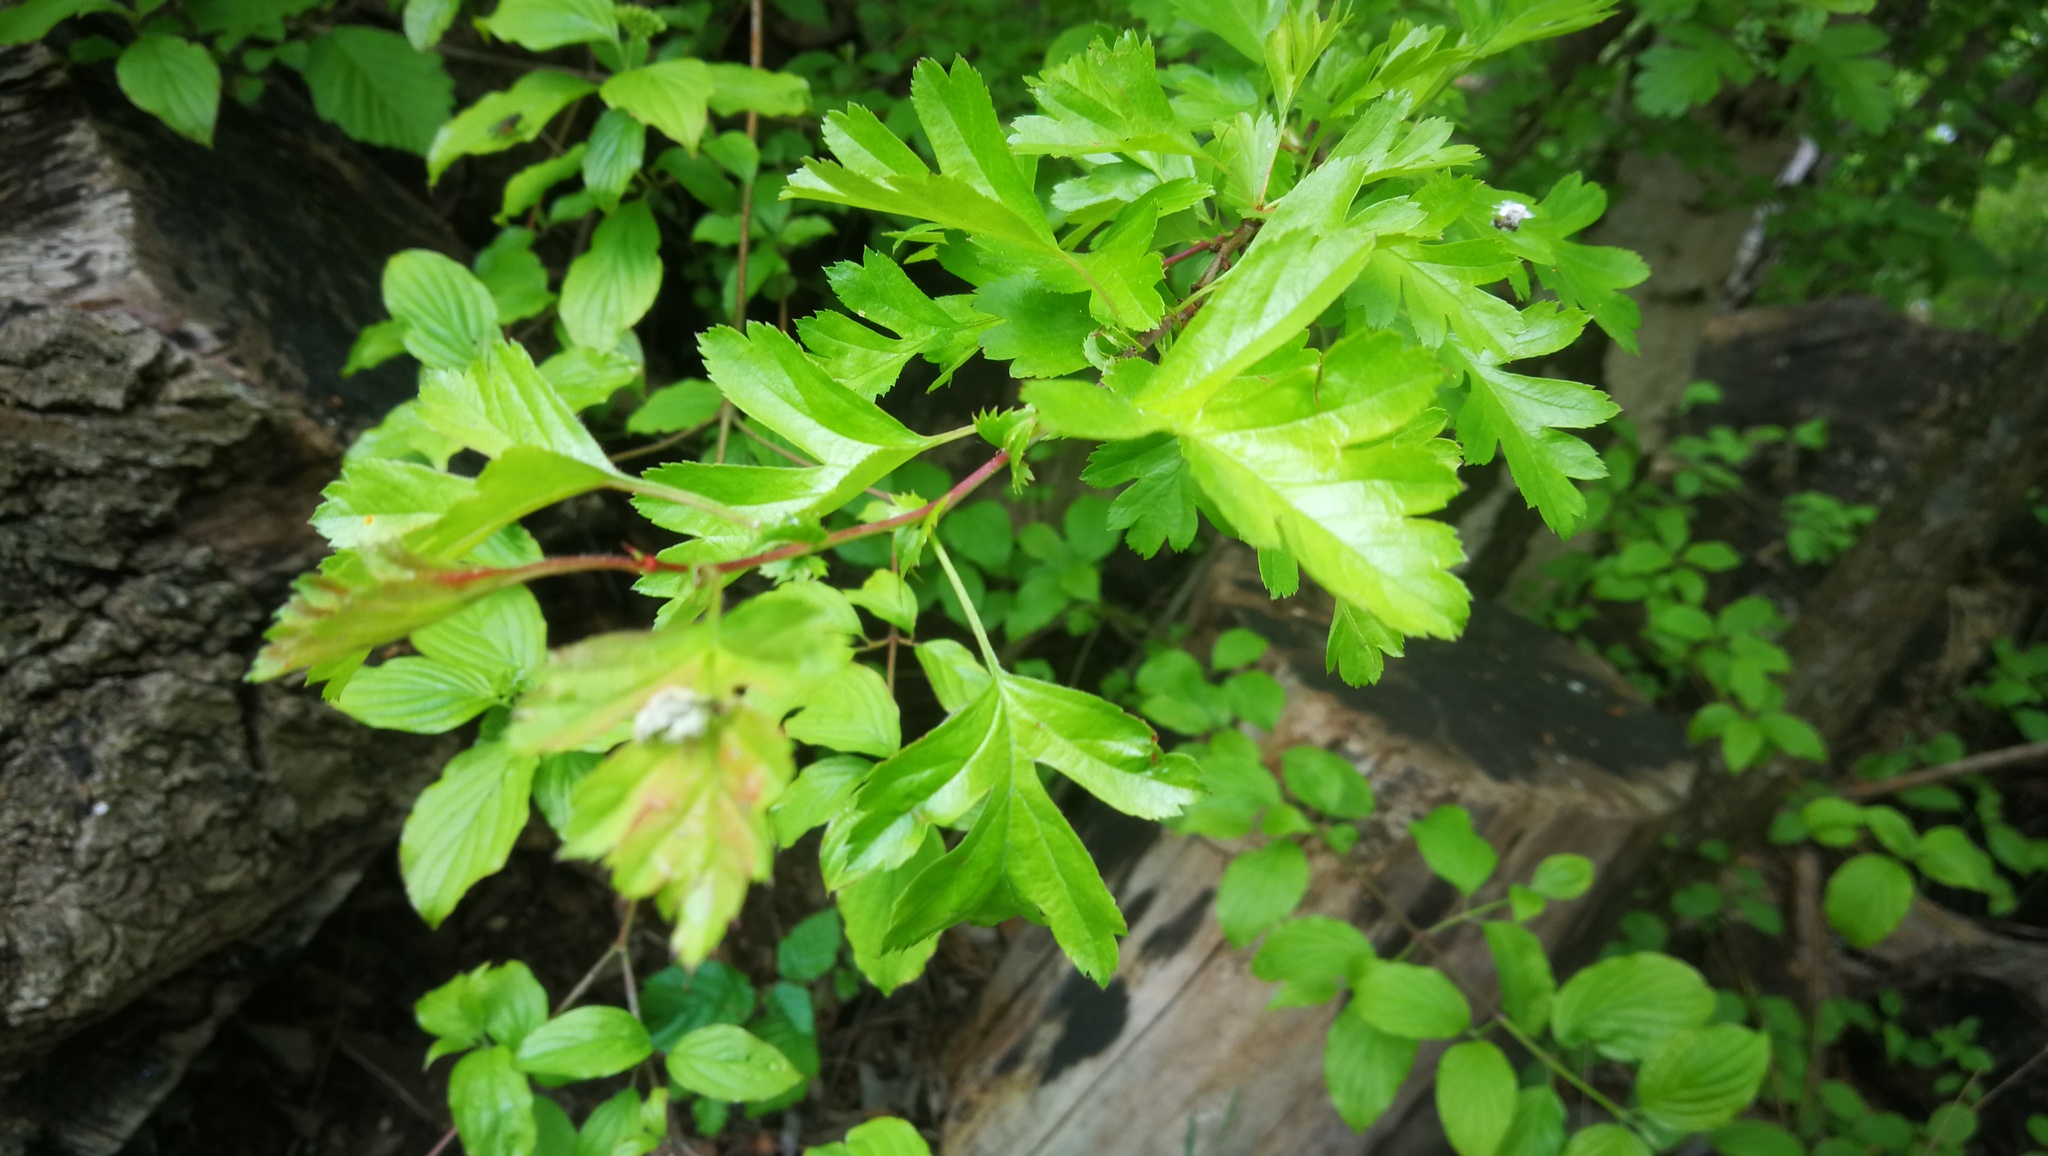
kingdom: Plantae
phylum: Tracheophyta
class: Magnoliopsida
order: Rosales
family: Rosaceae
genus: Crataegus
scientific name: Crataegus monogyna
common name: Hawthorn
